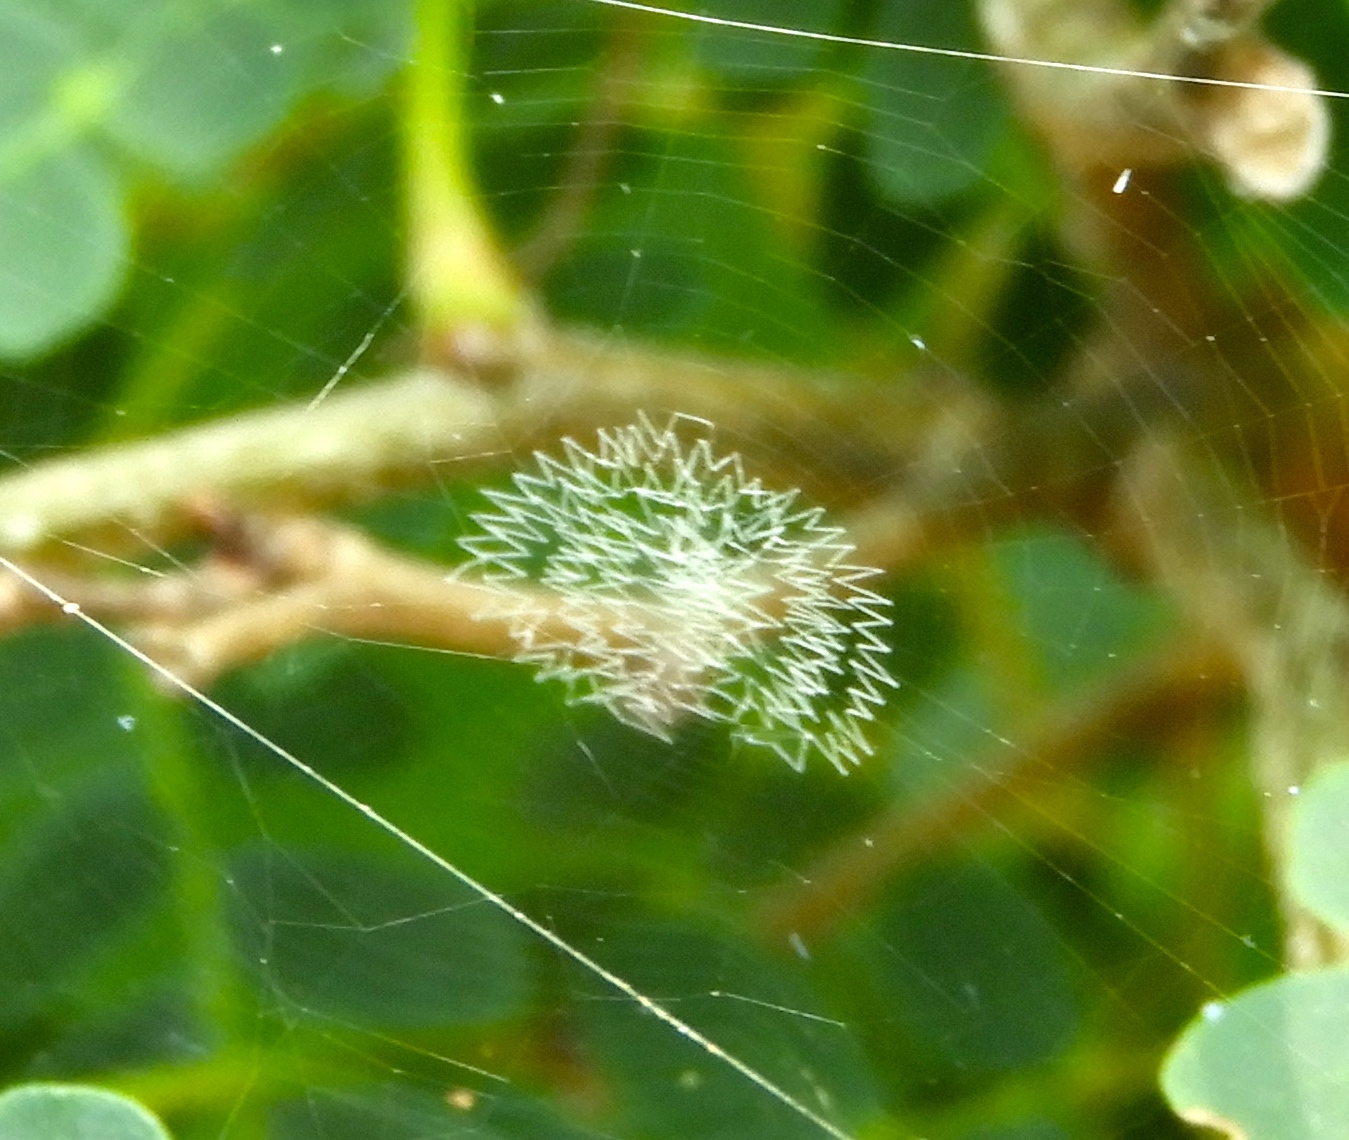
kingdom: Animalia
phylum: Arthropoda
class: Arachnida
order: Araneae
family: Araneidae
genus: Argiope
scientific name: Argiope aurantia
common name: Orb weavers
